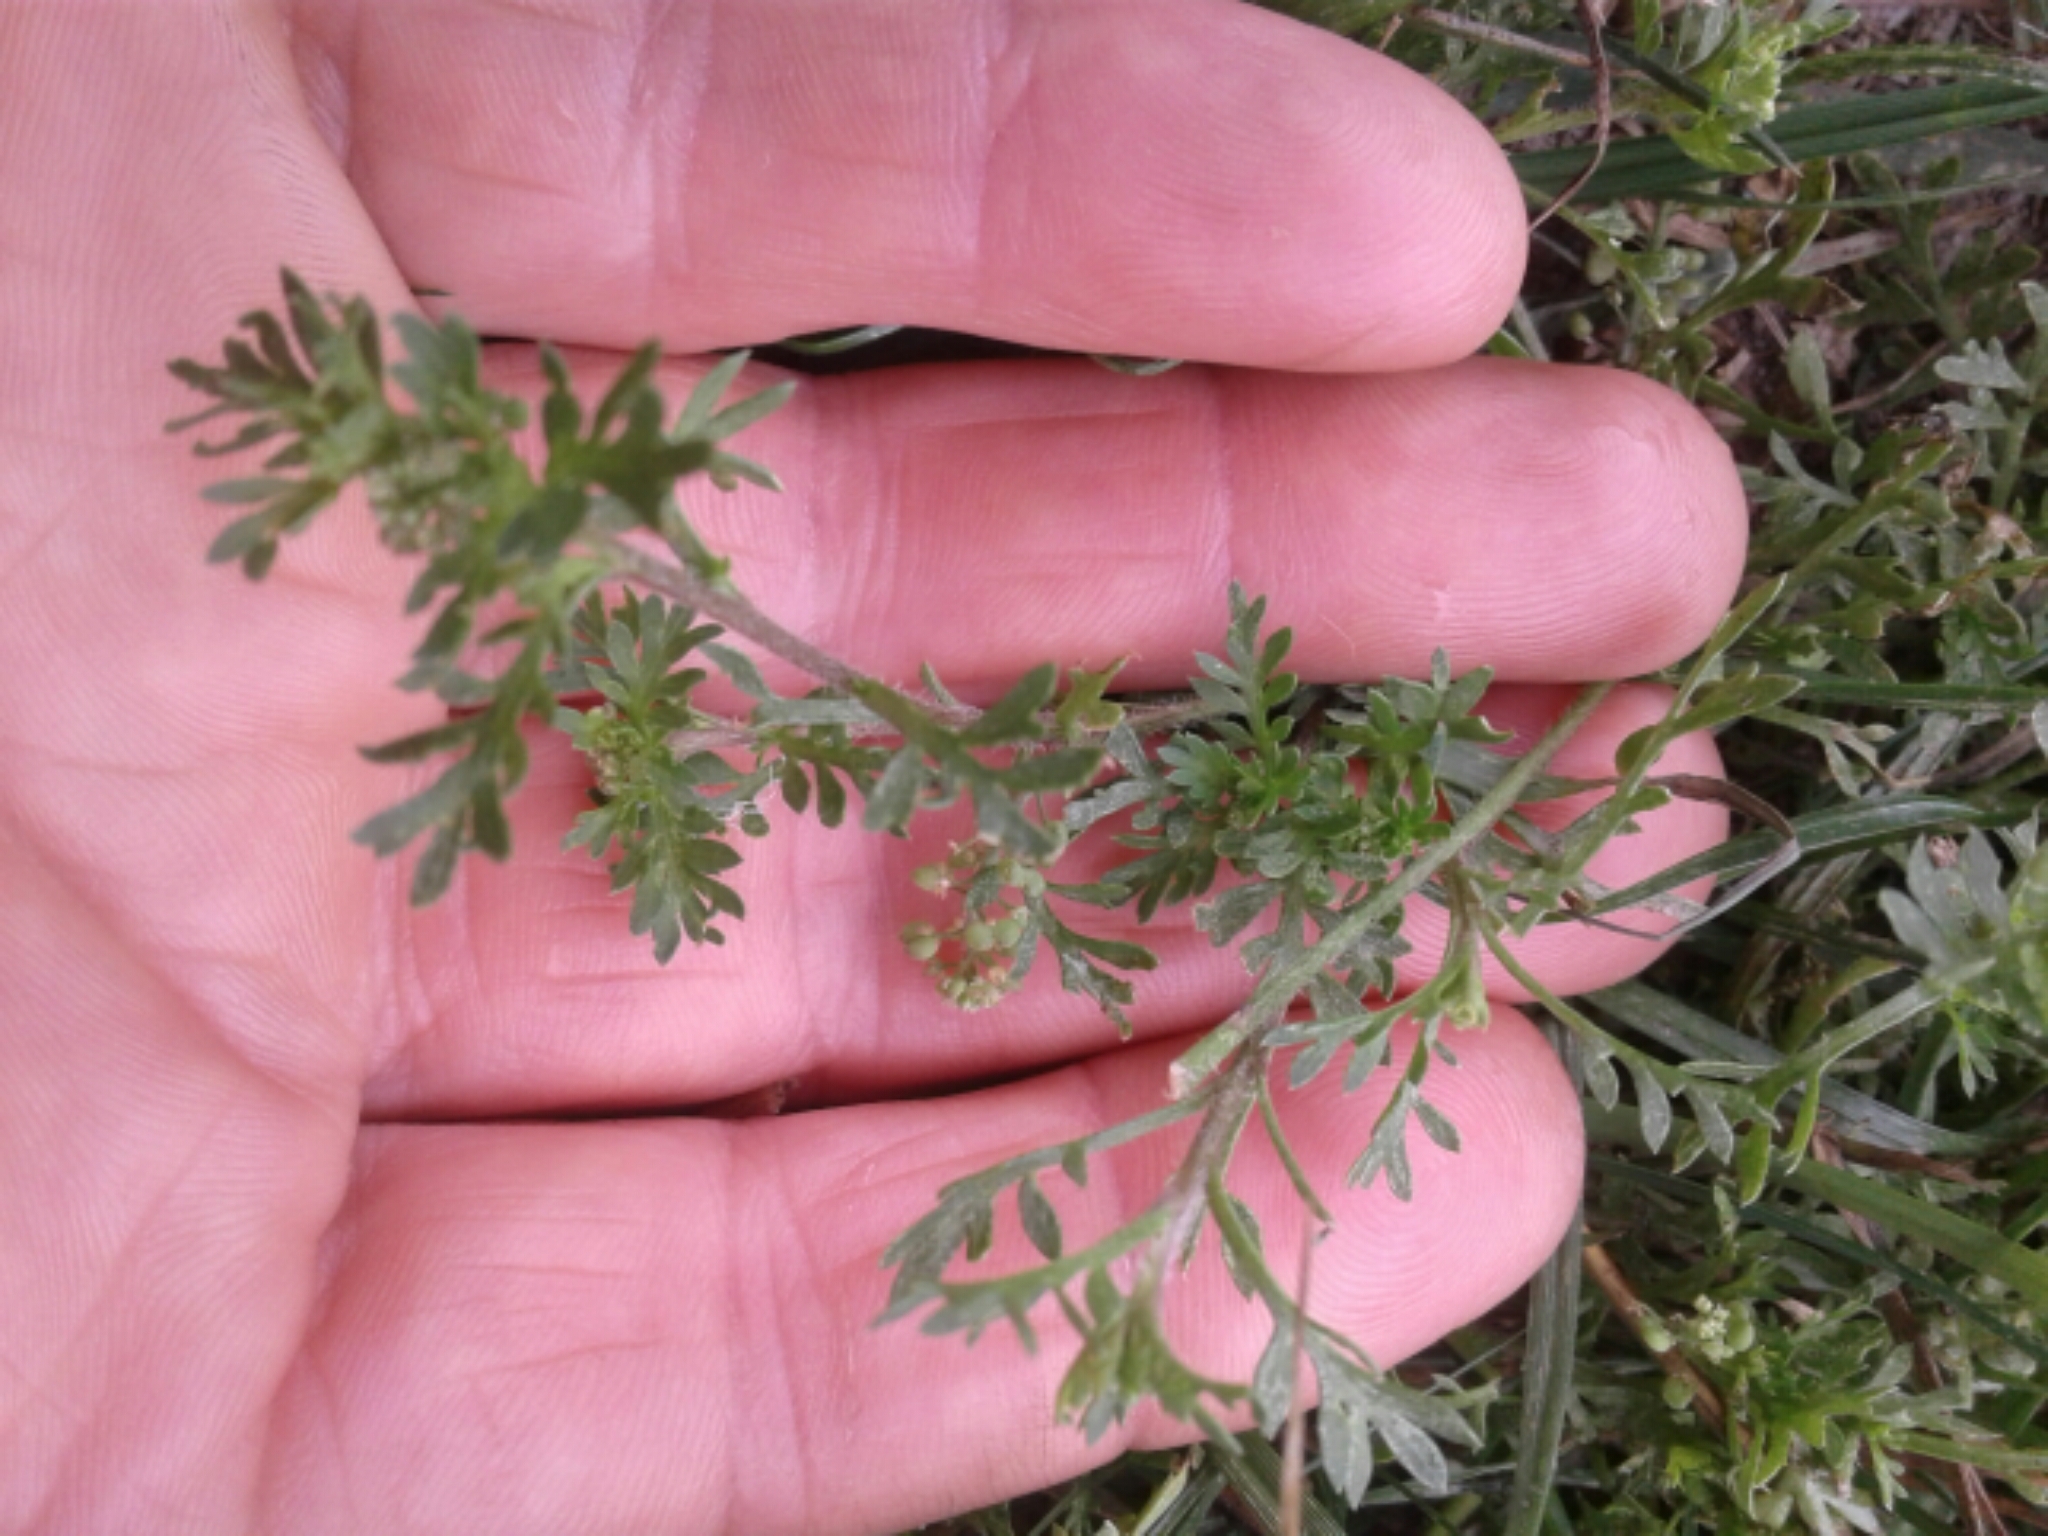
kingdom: Plantae
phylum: Tracheophyta
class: Magnoliopsida
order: Brassicales
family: Brassicaceae
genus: Lepidium
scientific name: Lepidium didymum
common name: Lesser swinecress
